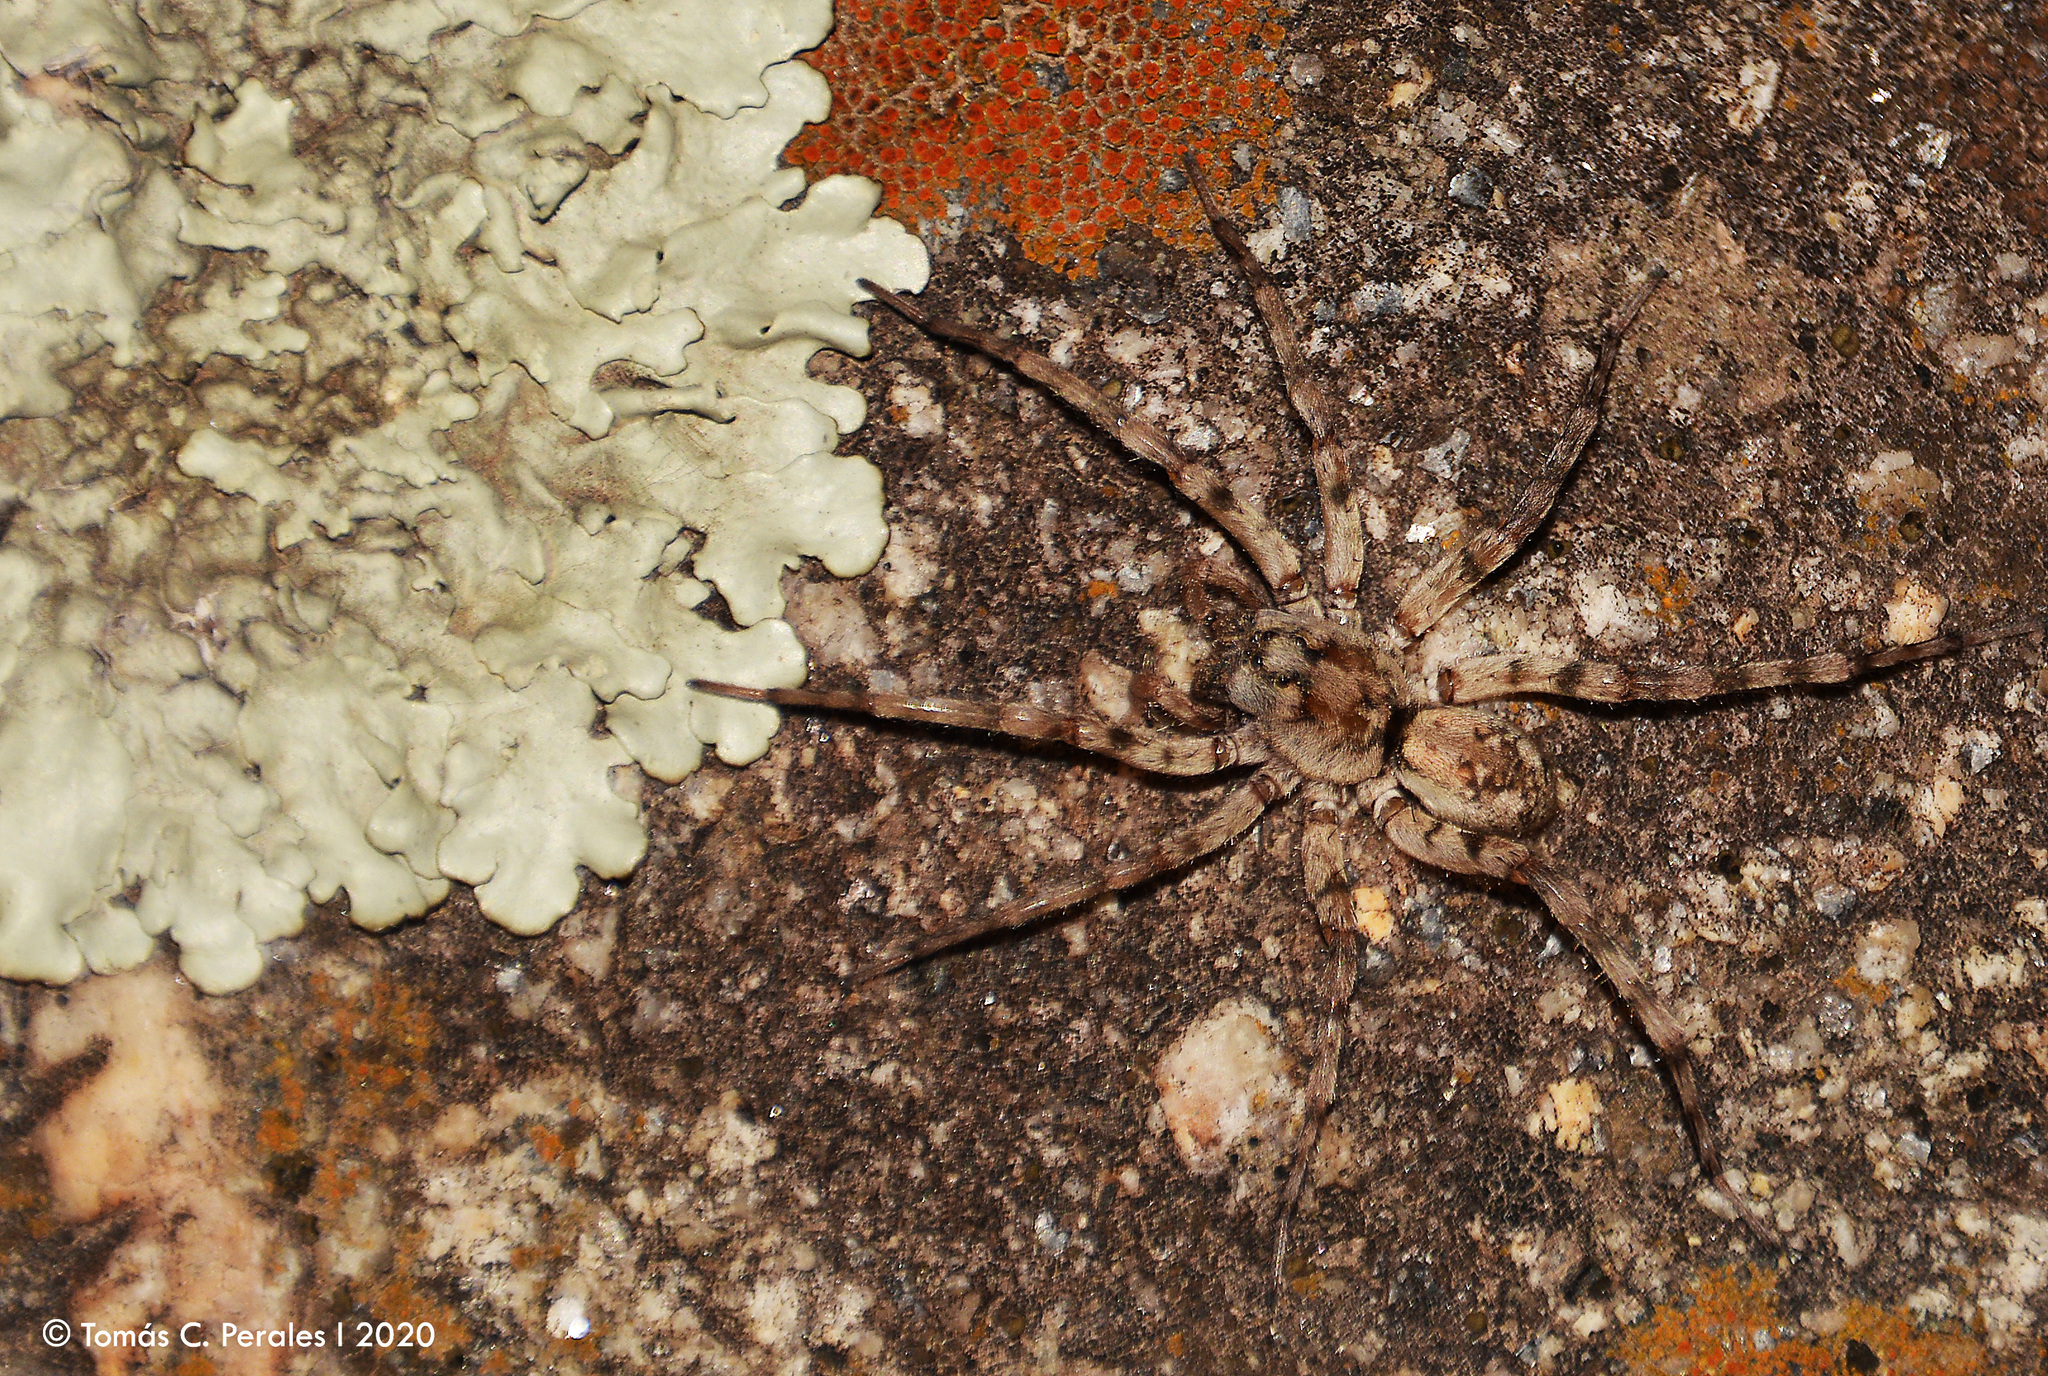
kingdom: Animalia
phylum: Arthropoda
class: Arachnida
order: Araneae
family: Lycosidae
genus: Allocosa
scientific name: Allocosa senex
